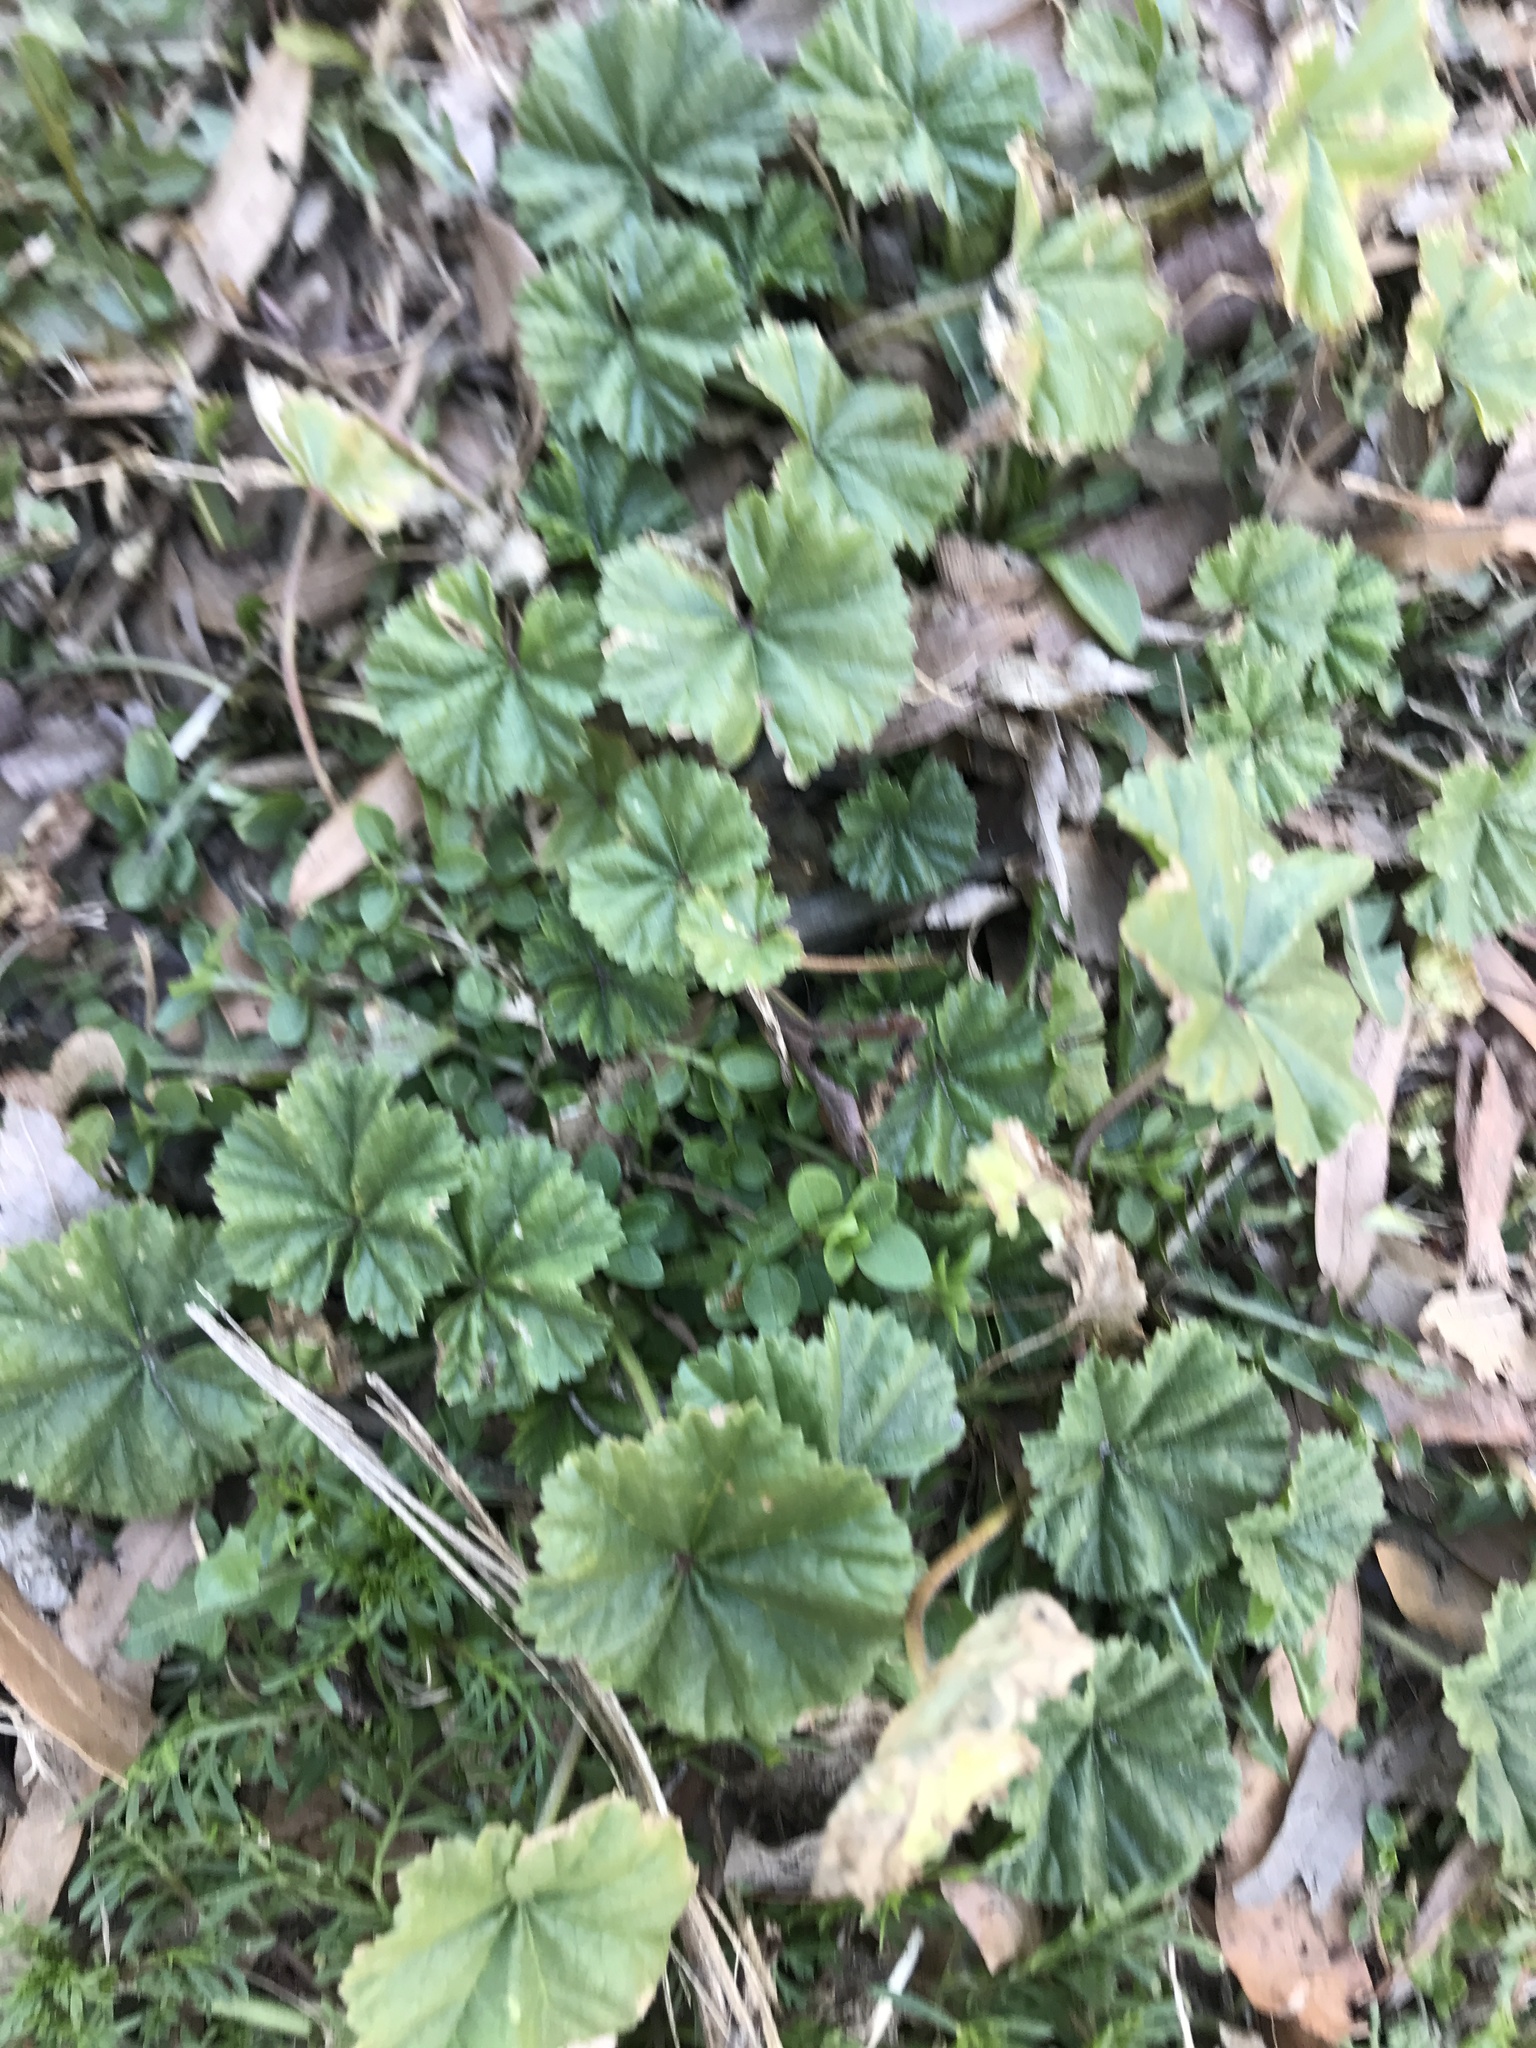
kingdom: Plantae
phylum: Tracheophyta
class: Magnoliopsida
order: Malvales
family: Malvaceae
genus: Malva
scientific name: Malva neglecta
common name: Common mallow
